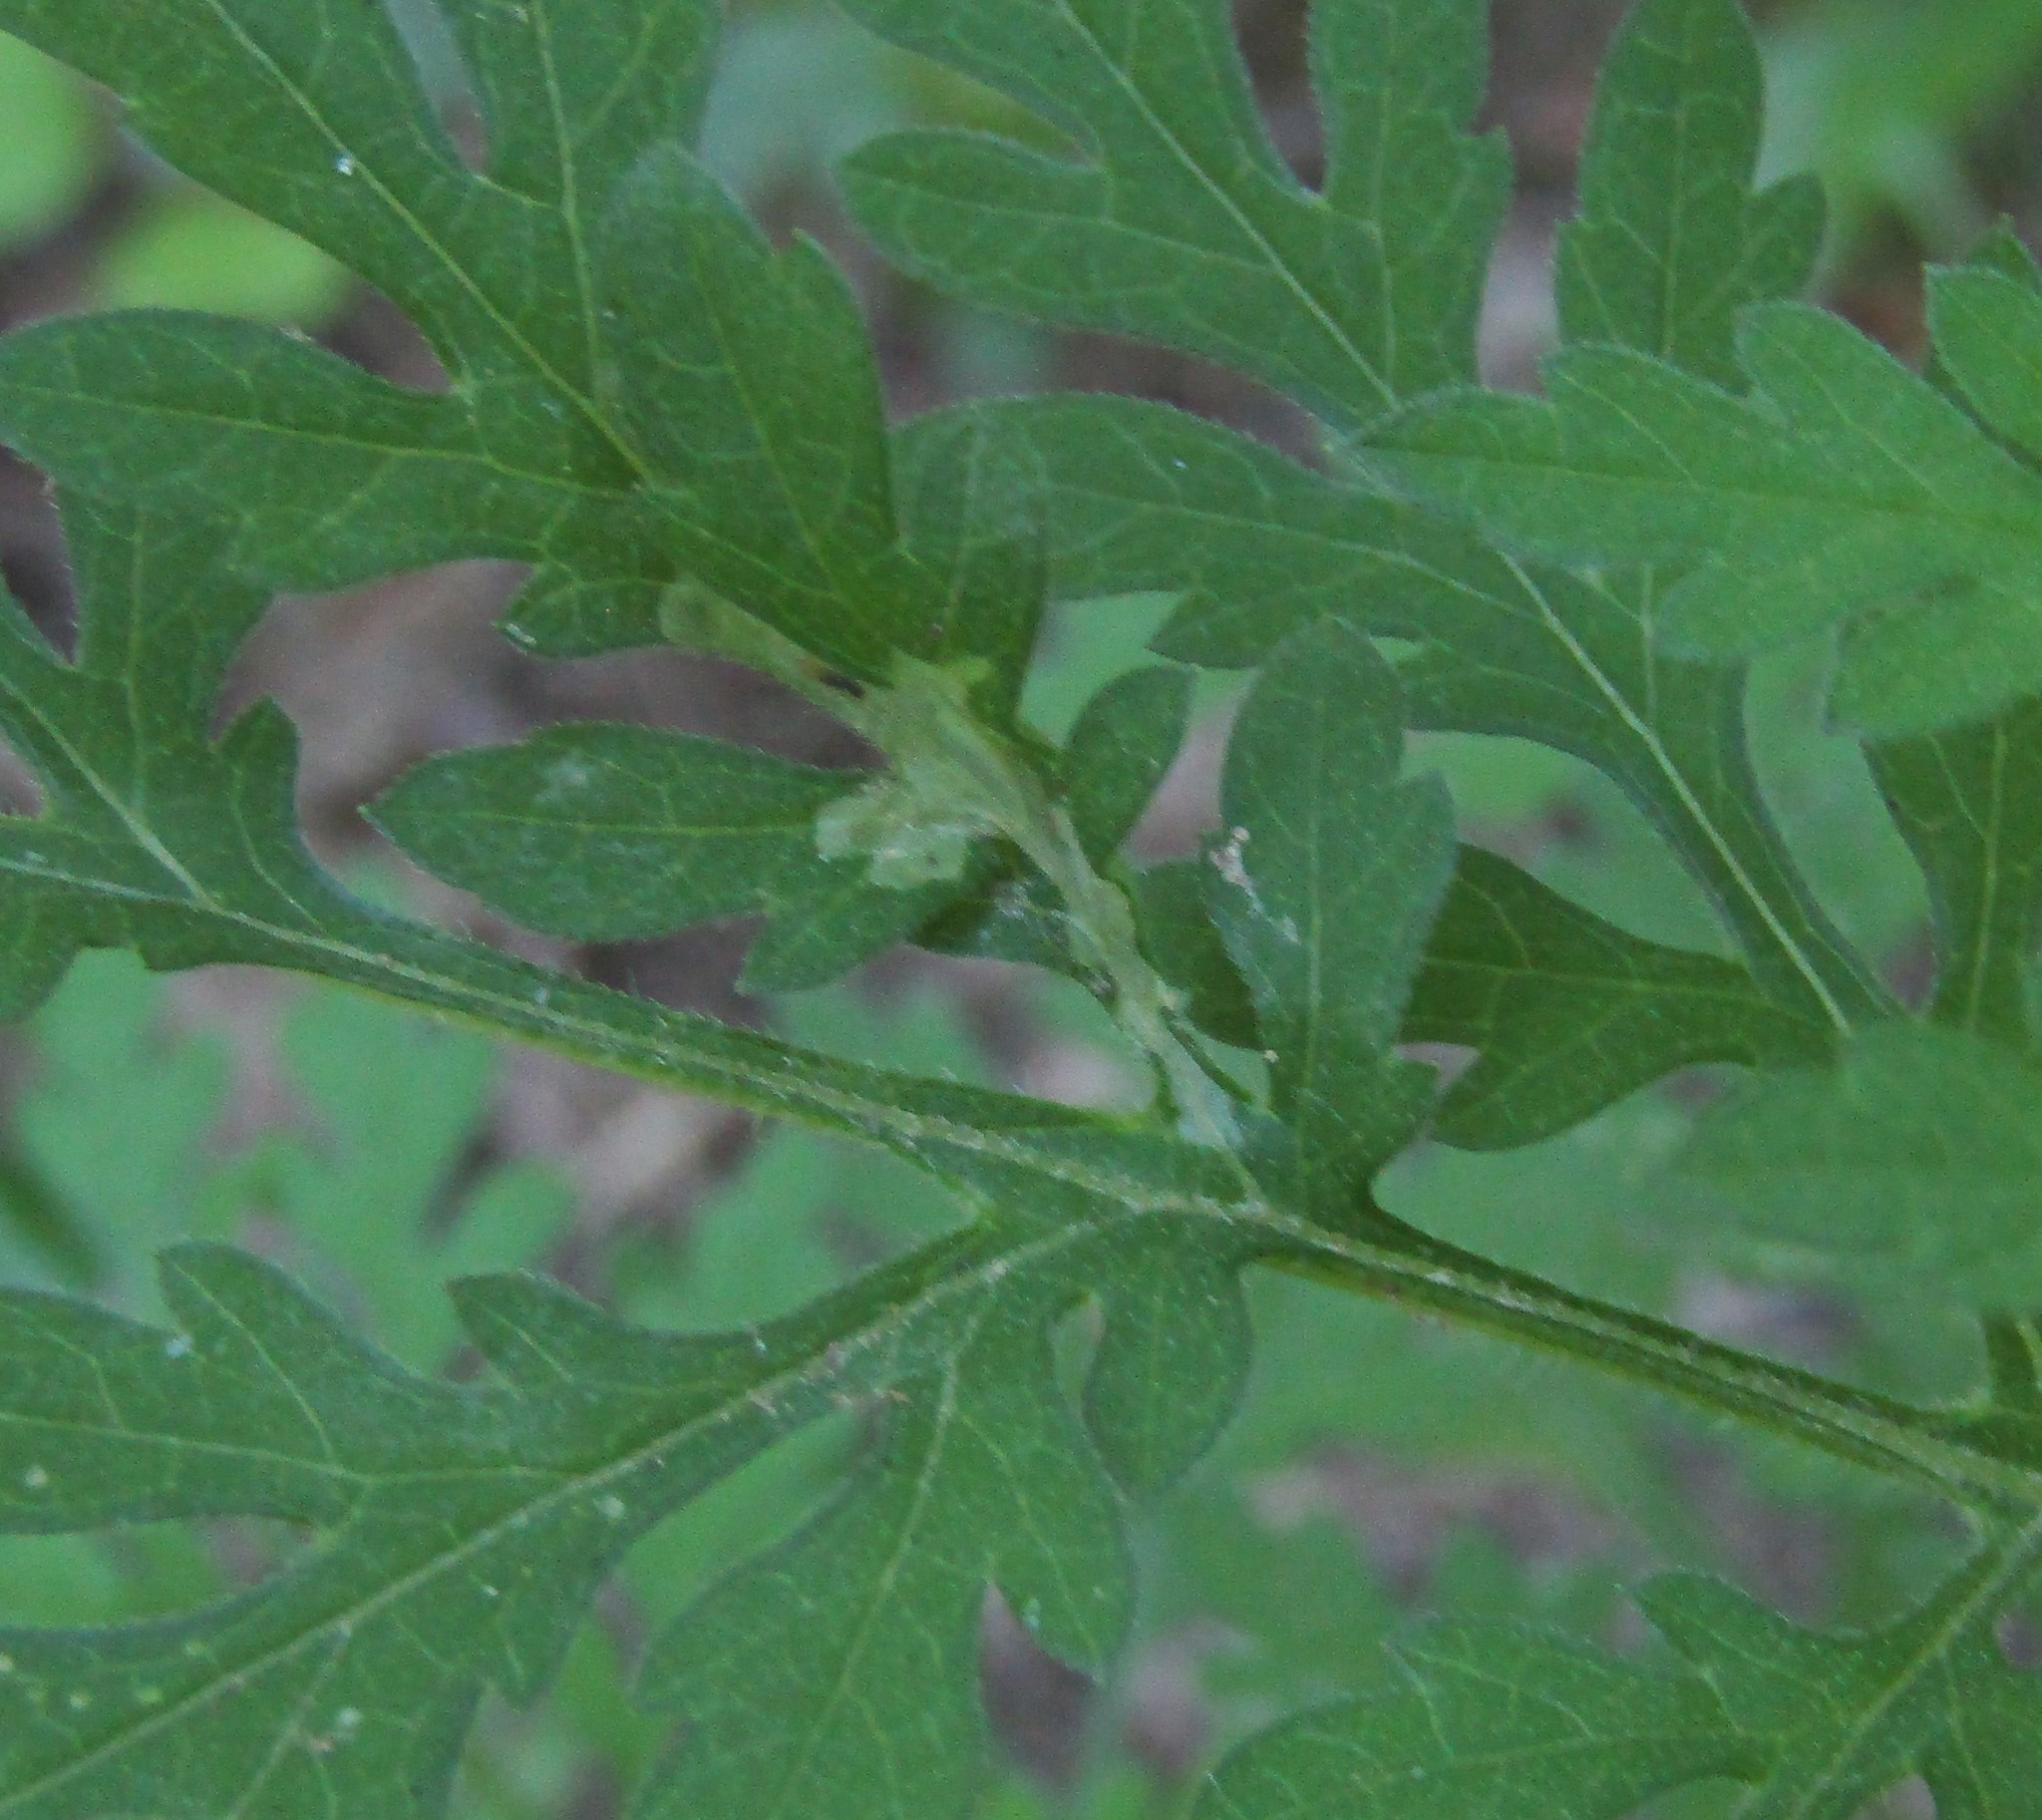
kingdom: Animalia
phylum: Arthropoda
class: Insecta
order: Diptera
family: Agromyzidae
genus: Calycomyza
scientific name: Calycomyza platyptera
